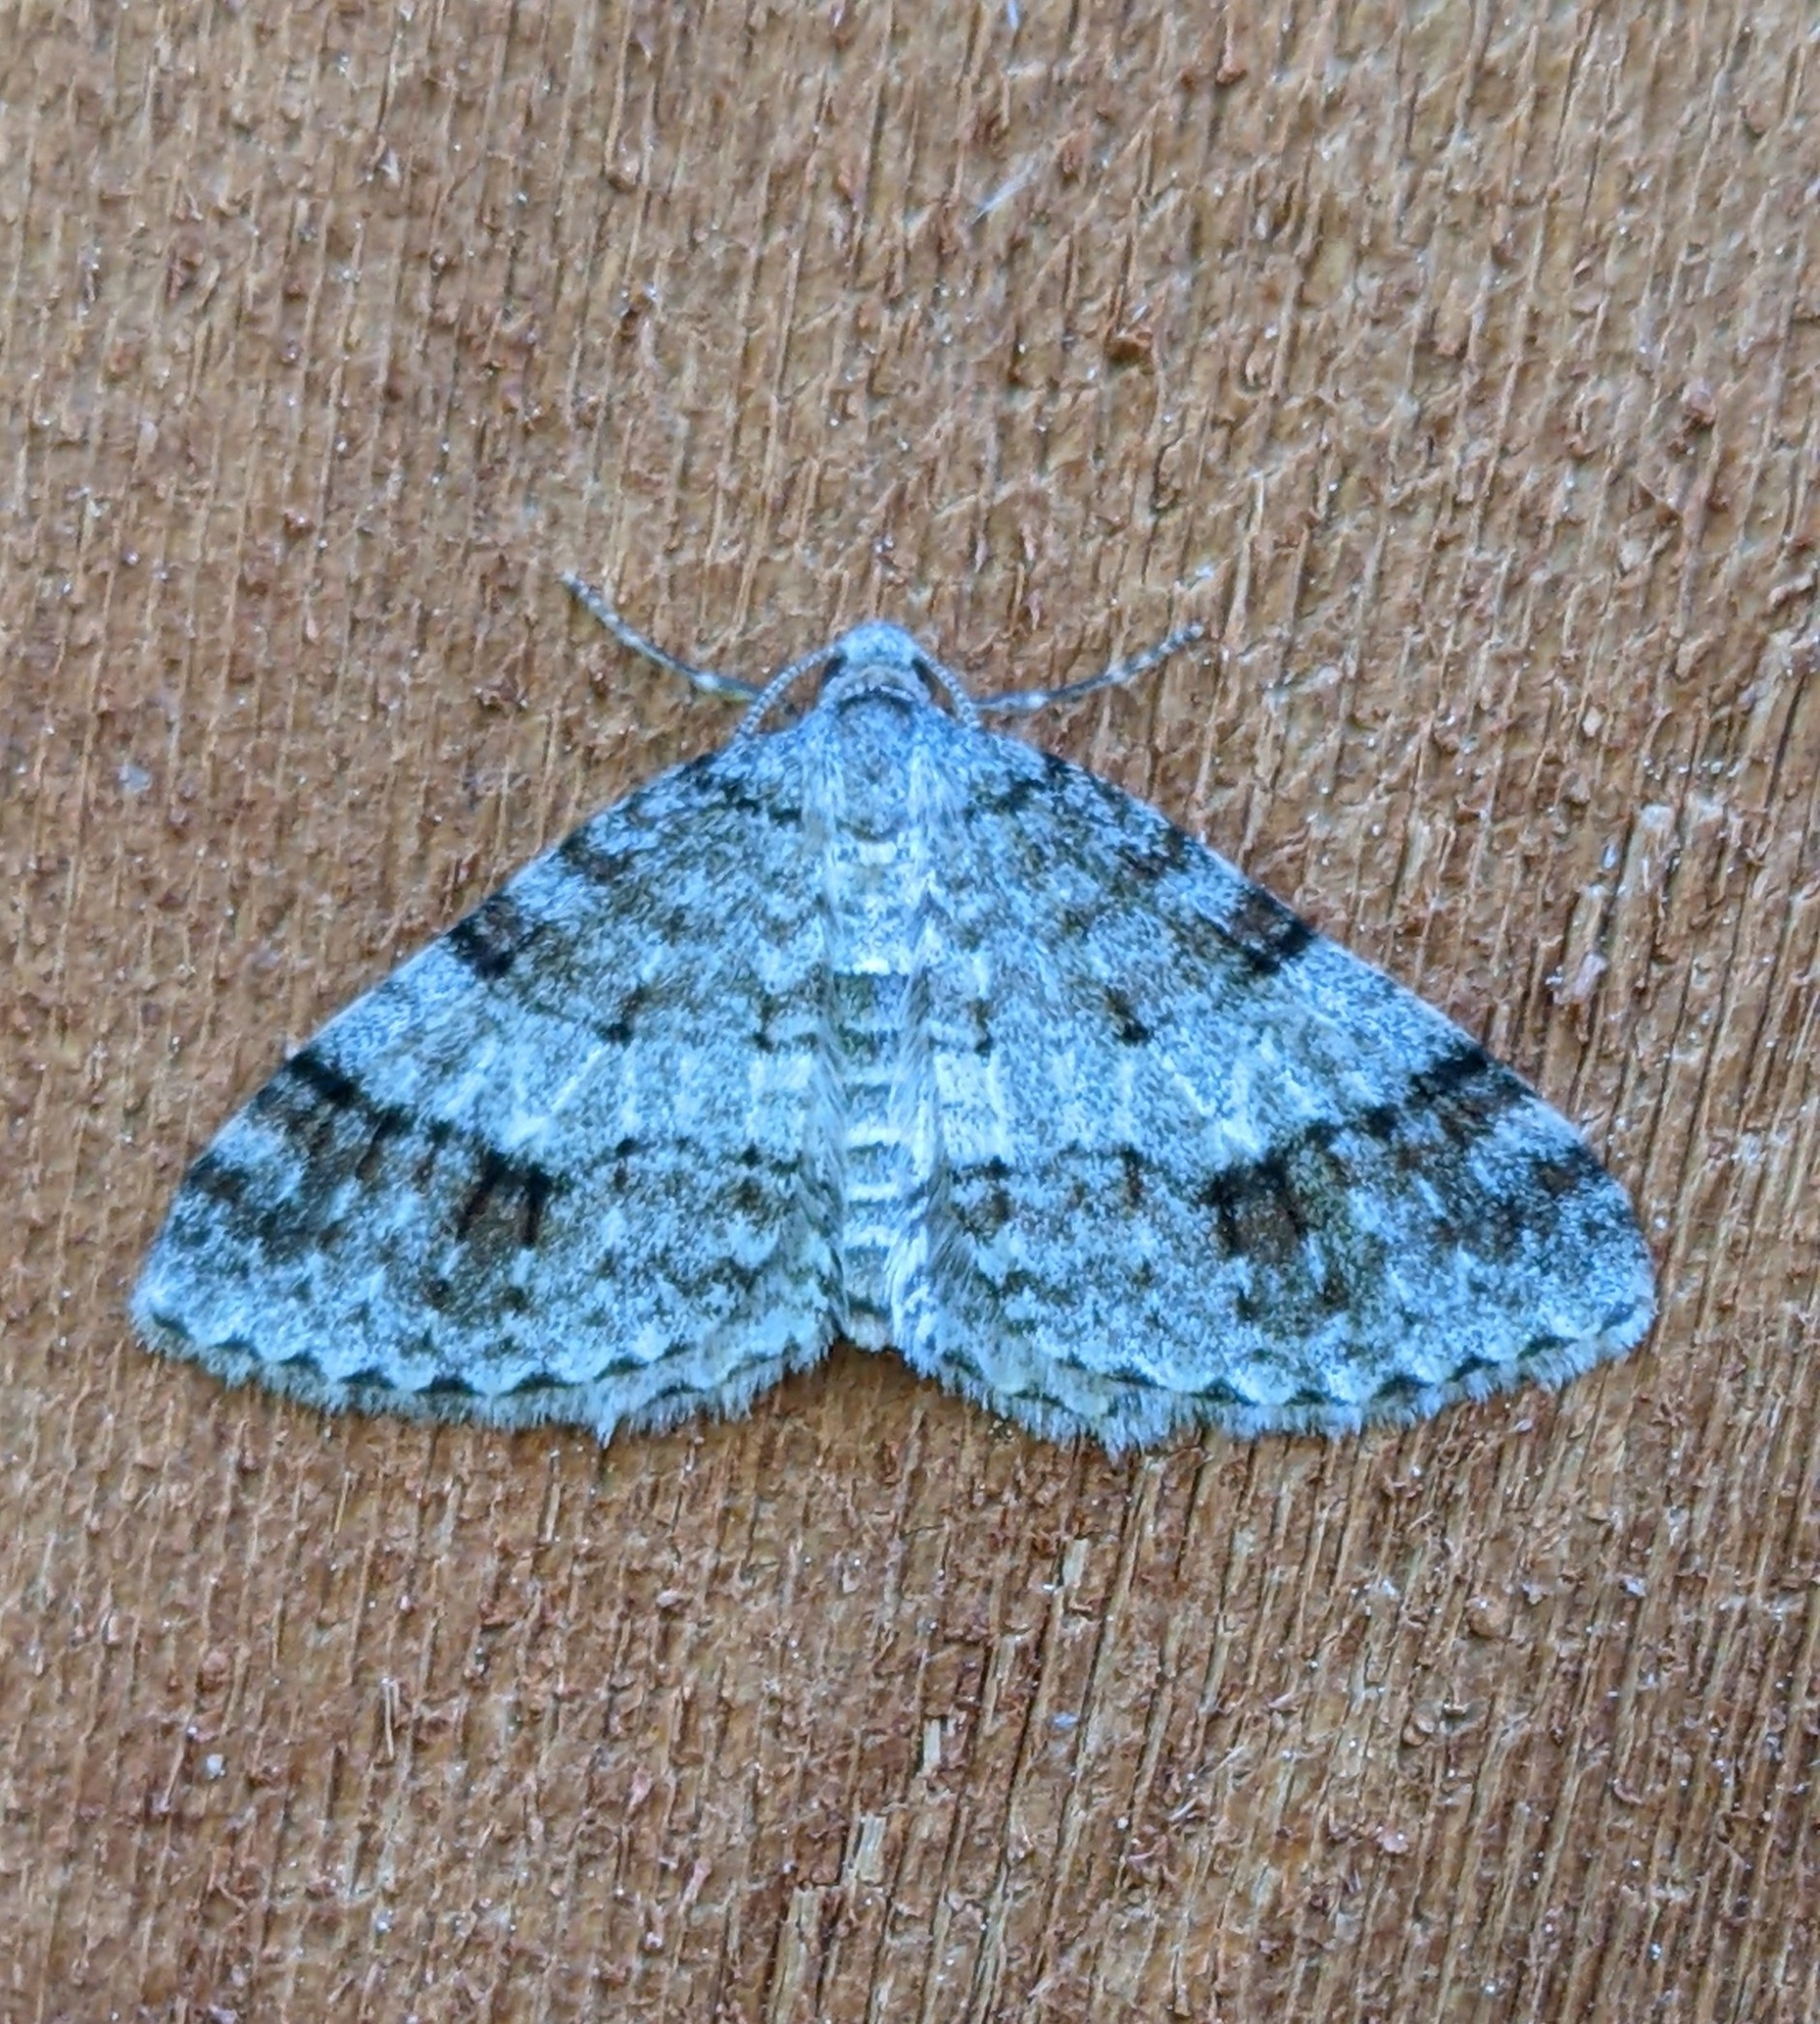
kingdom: Animalia
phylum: Arthropoda
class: Insecta
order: Lepidoptera
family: Geometridae
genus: Venusia
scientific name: Venusia cambrica
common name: Welsh wave
